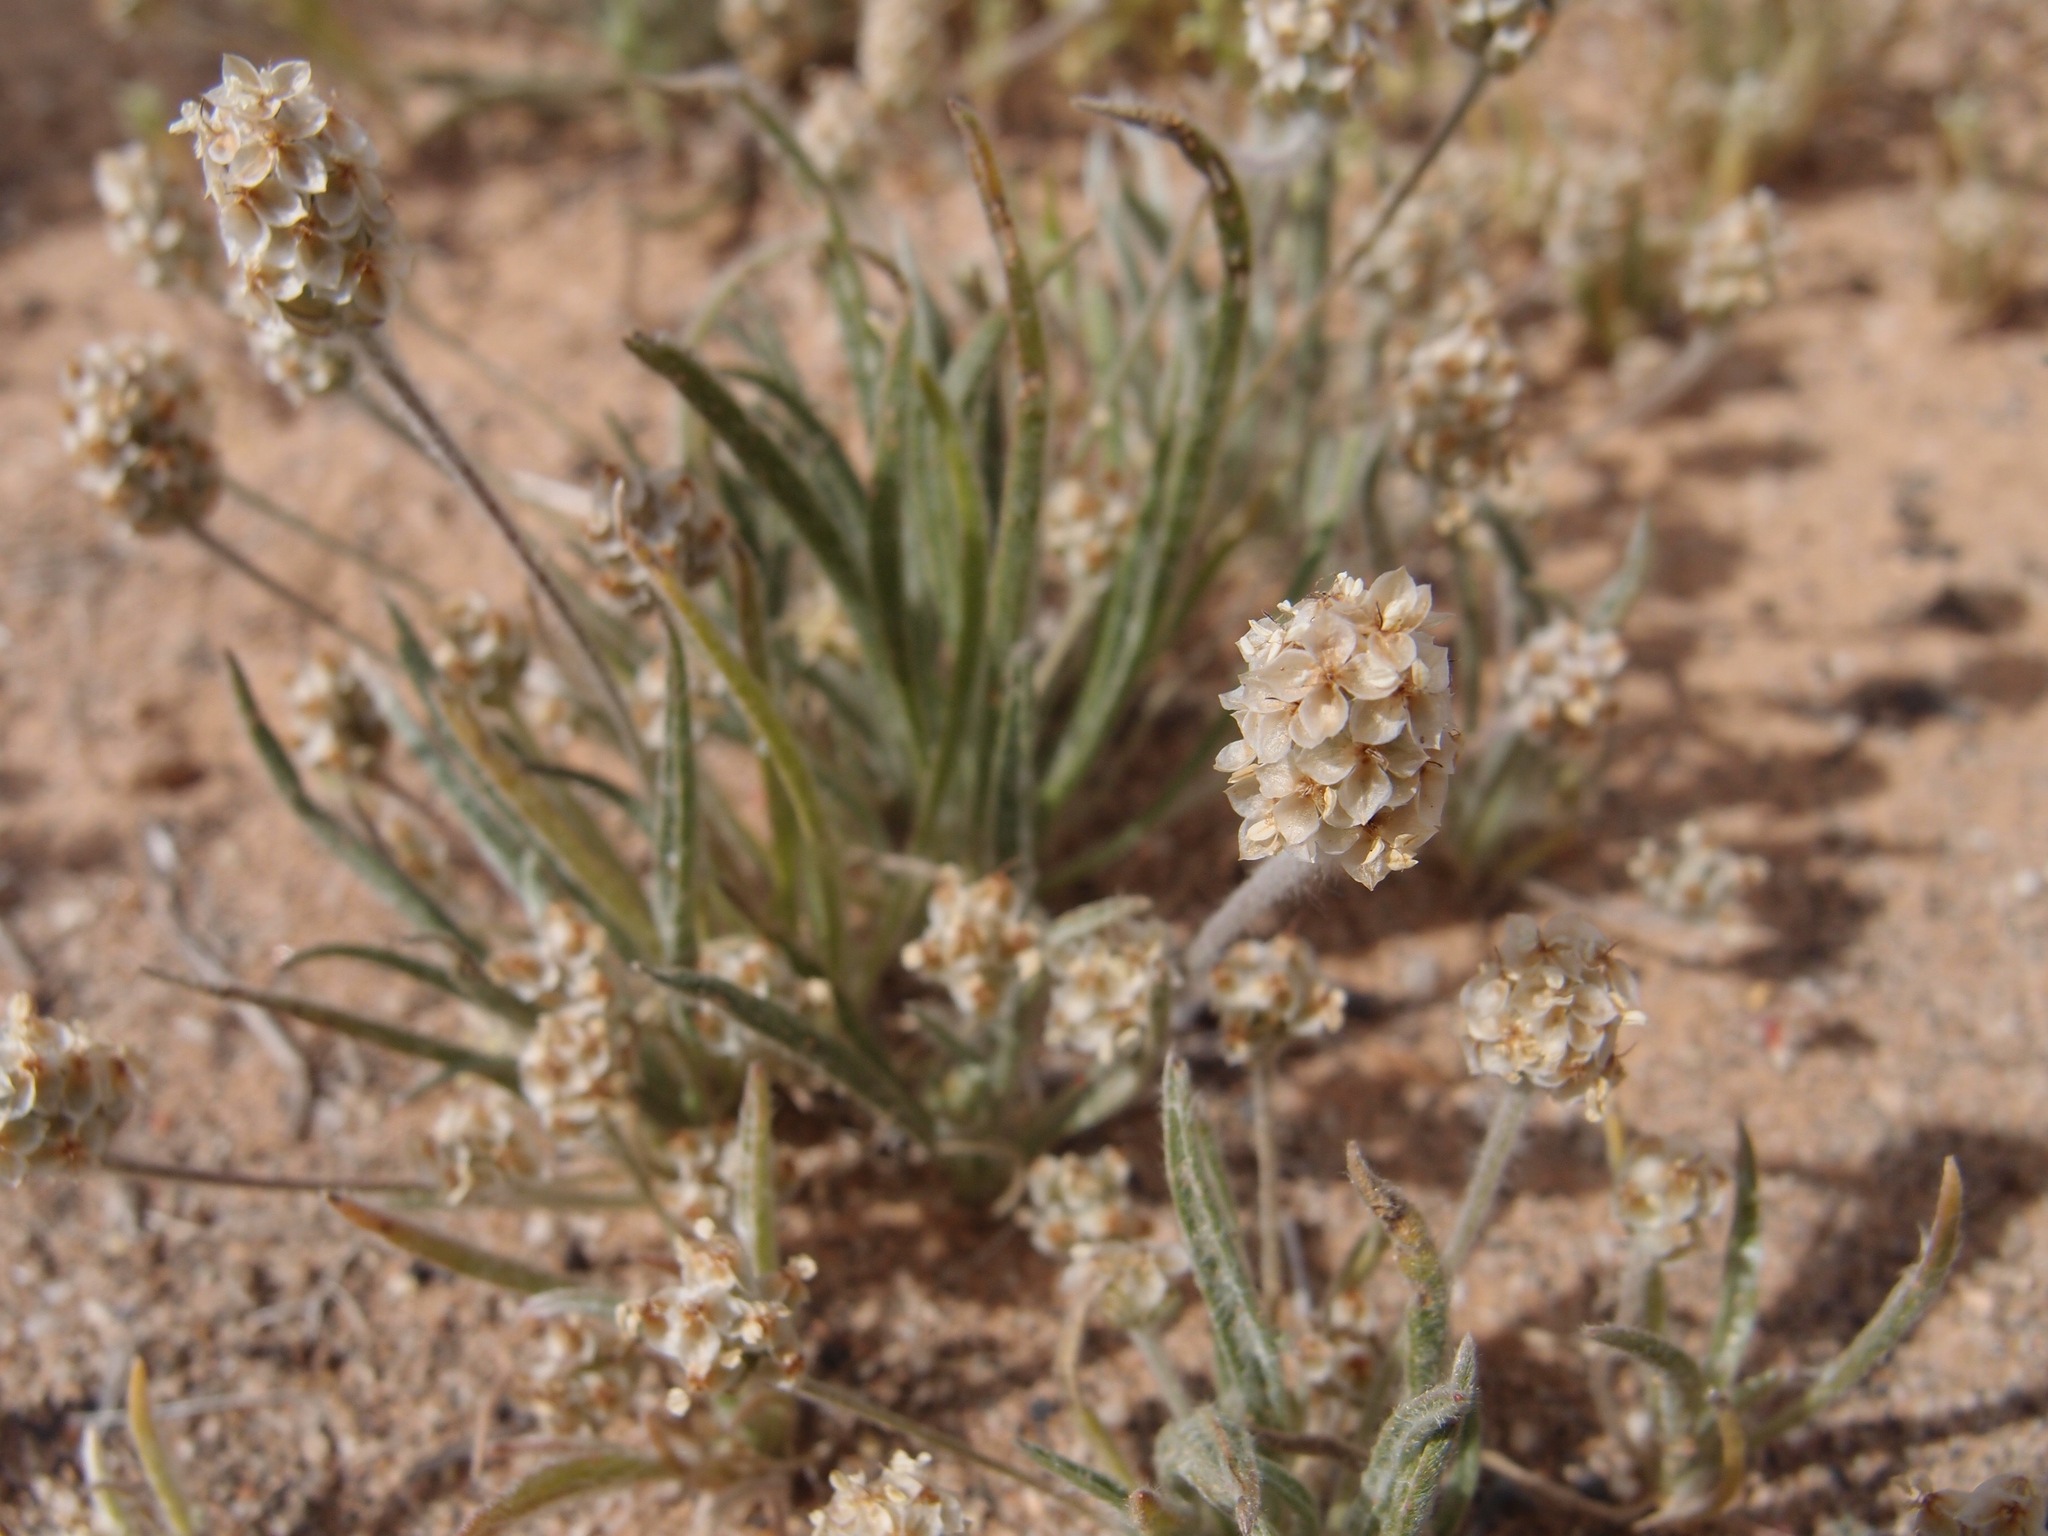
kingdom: Plantae
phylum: Tracheophyta
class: Magnoliopsida
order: Lamiales
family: Plantaginaceae
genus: Plantago
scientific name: Plantago ovata
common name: Blond plantain
